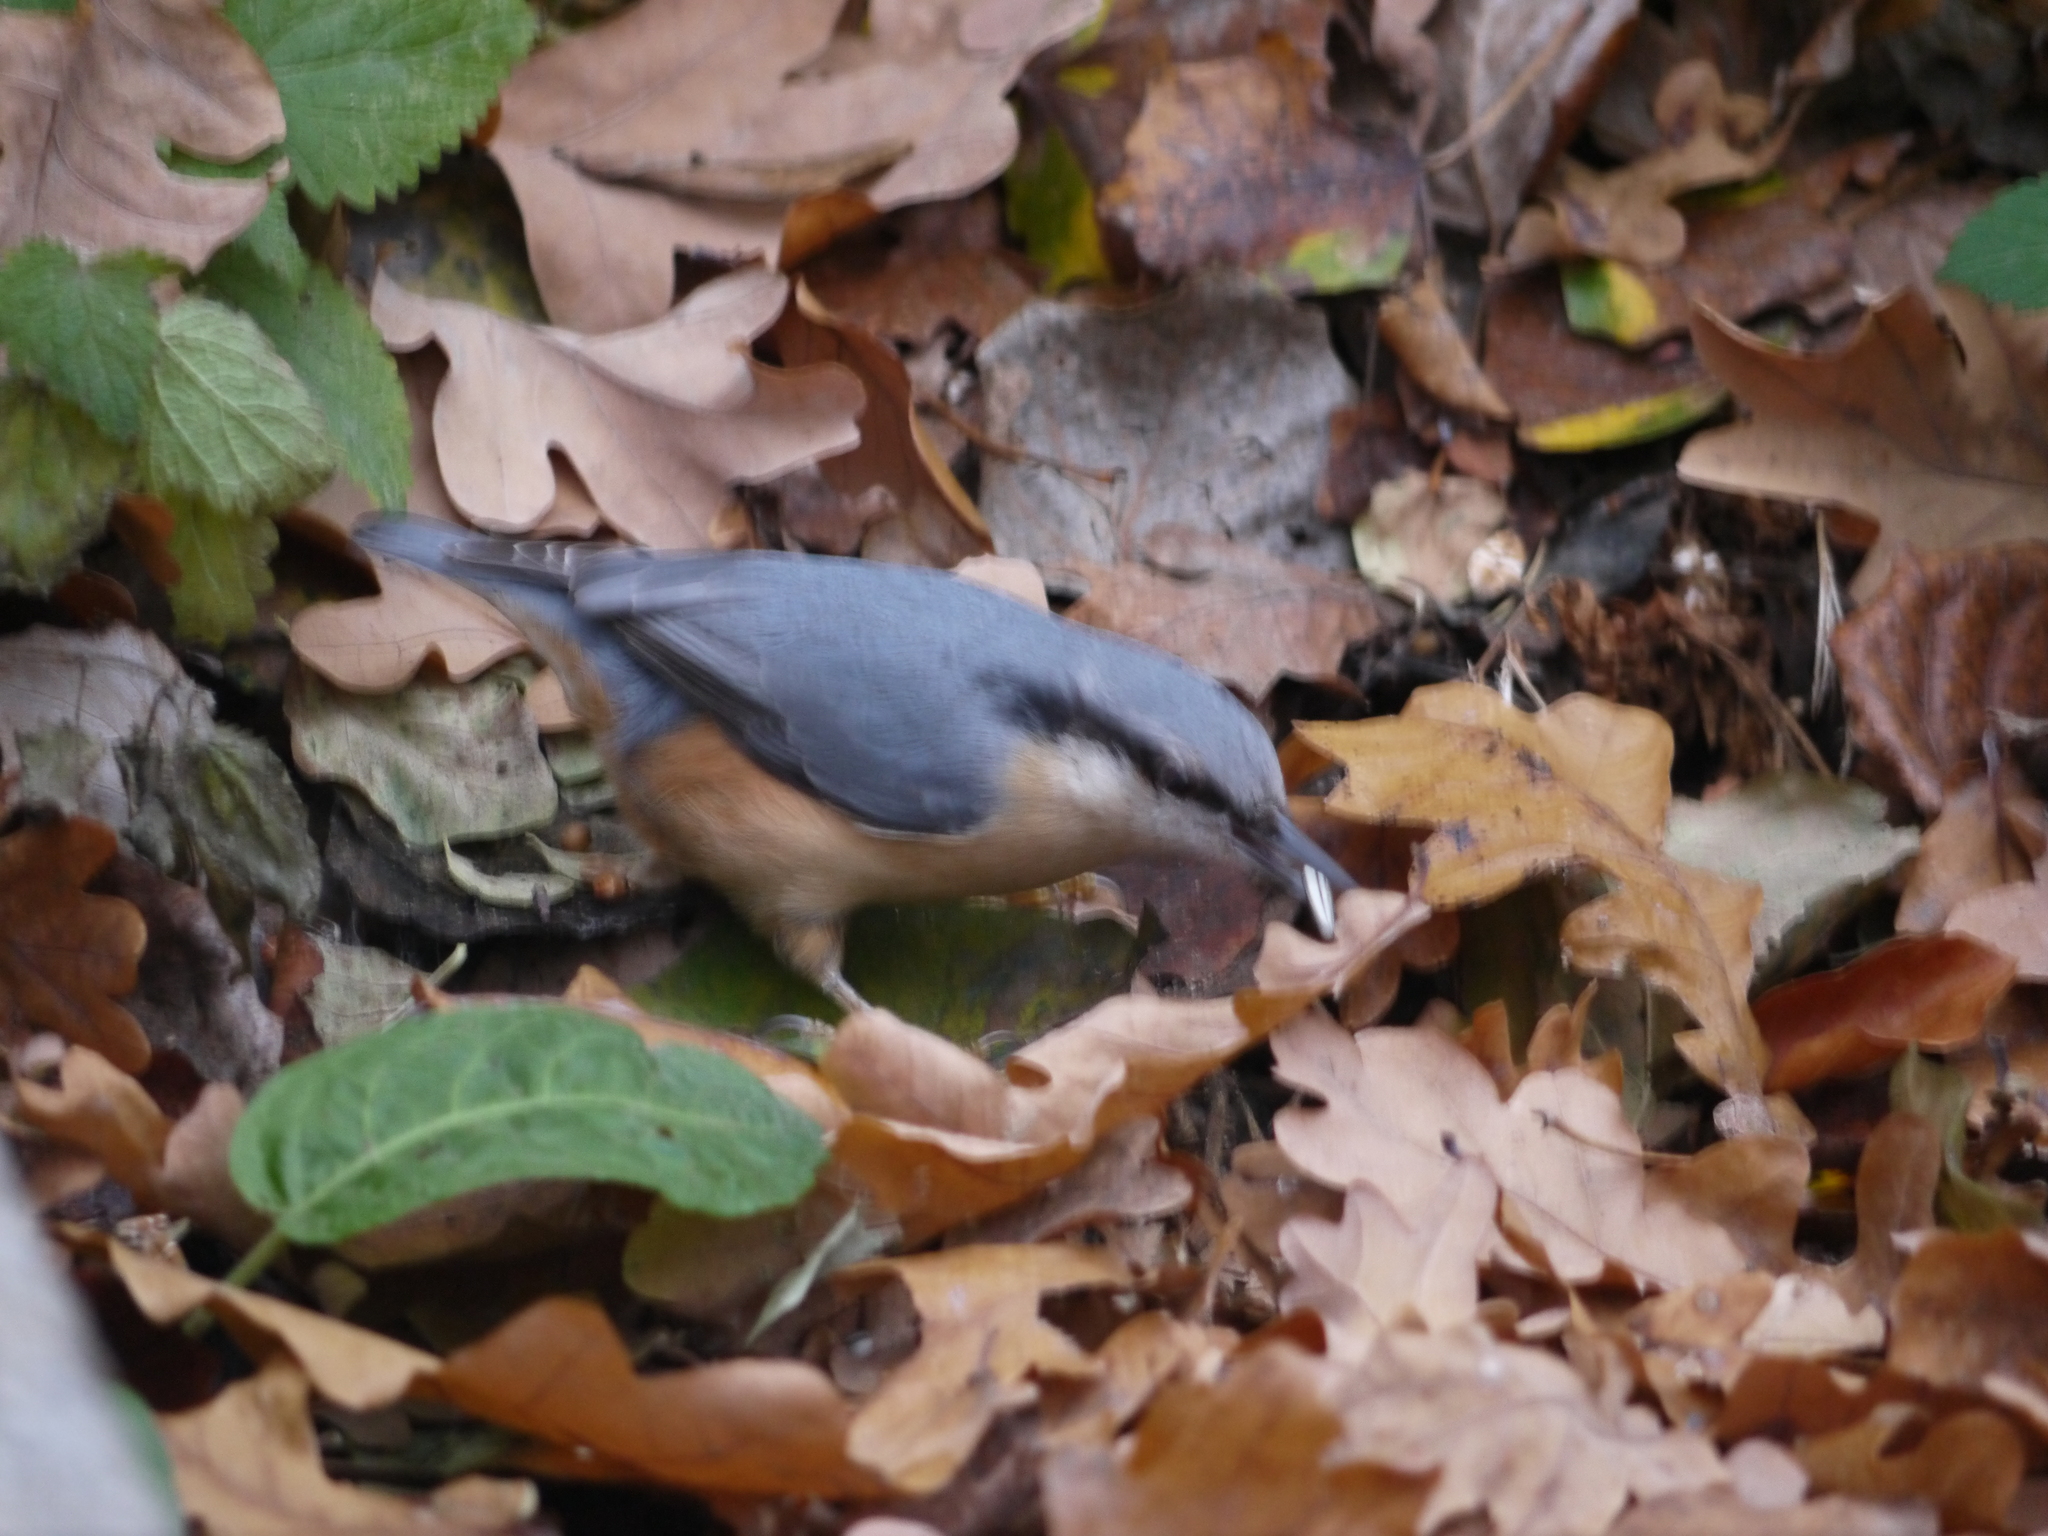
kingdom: Animalia
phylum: Chordata
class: Aves
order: Passeriformes
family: Sittidae
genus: Sitta
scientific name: Sitta europaea
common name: Eurasian nuthatch
